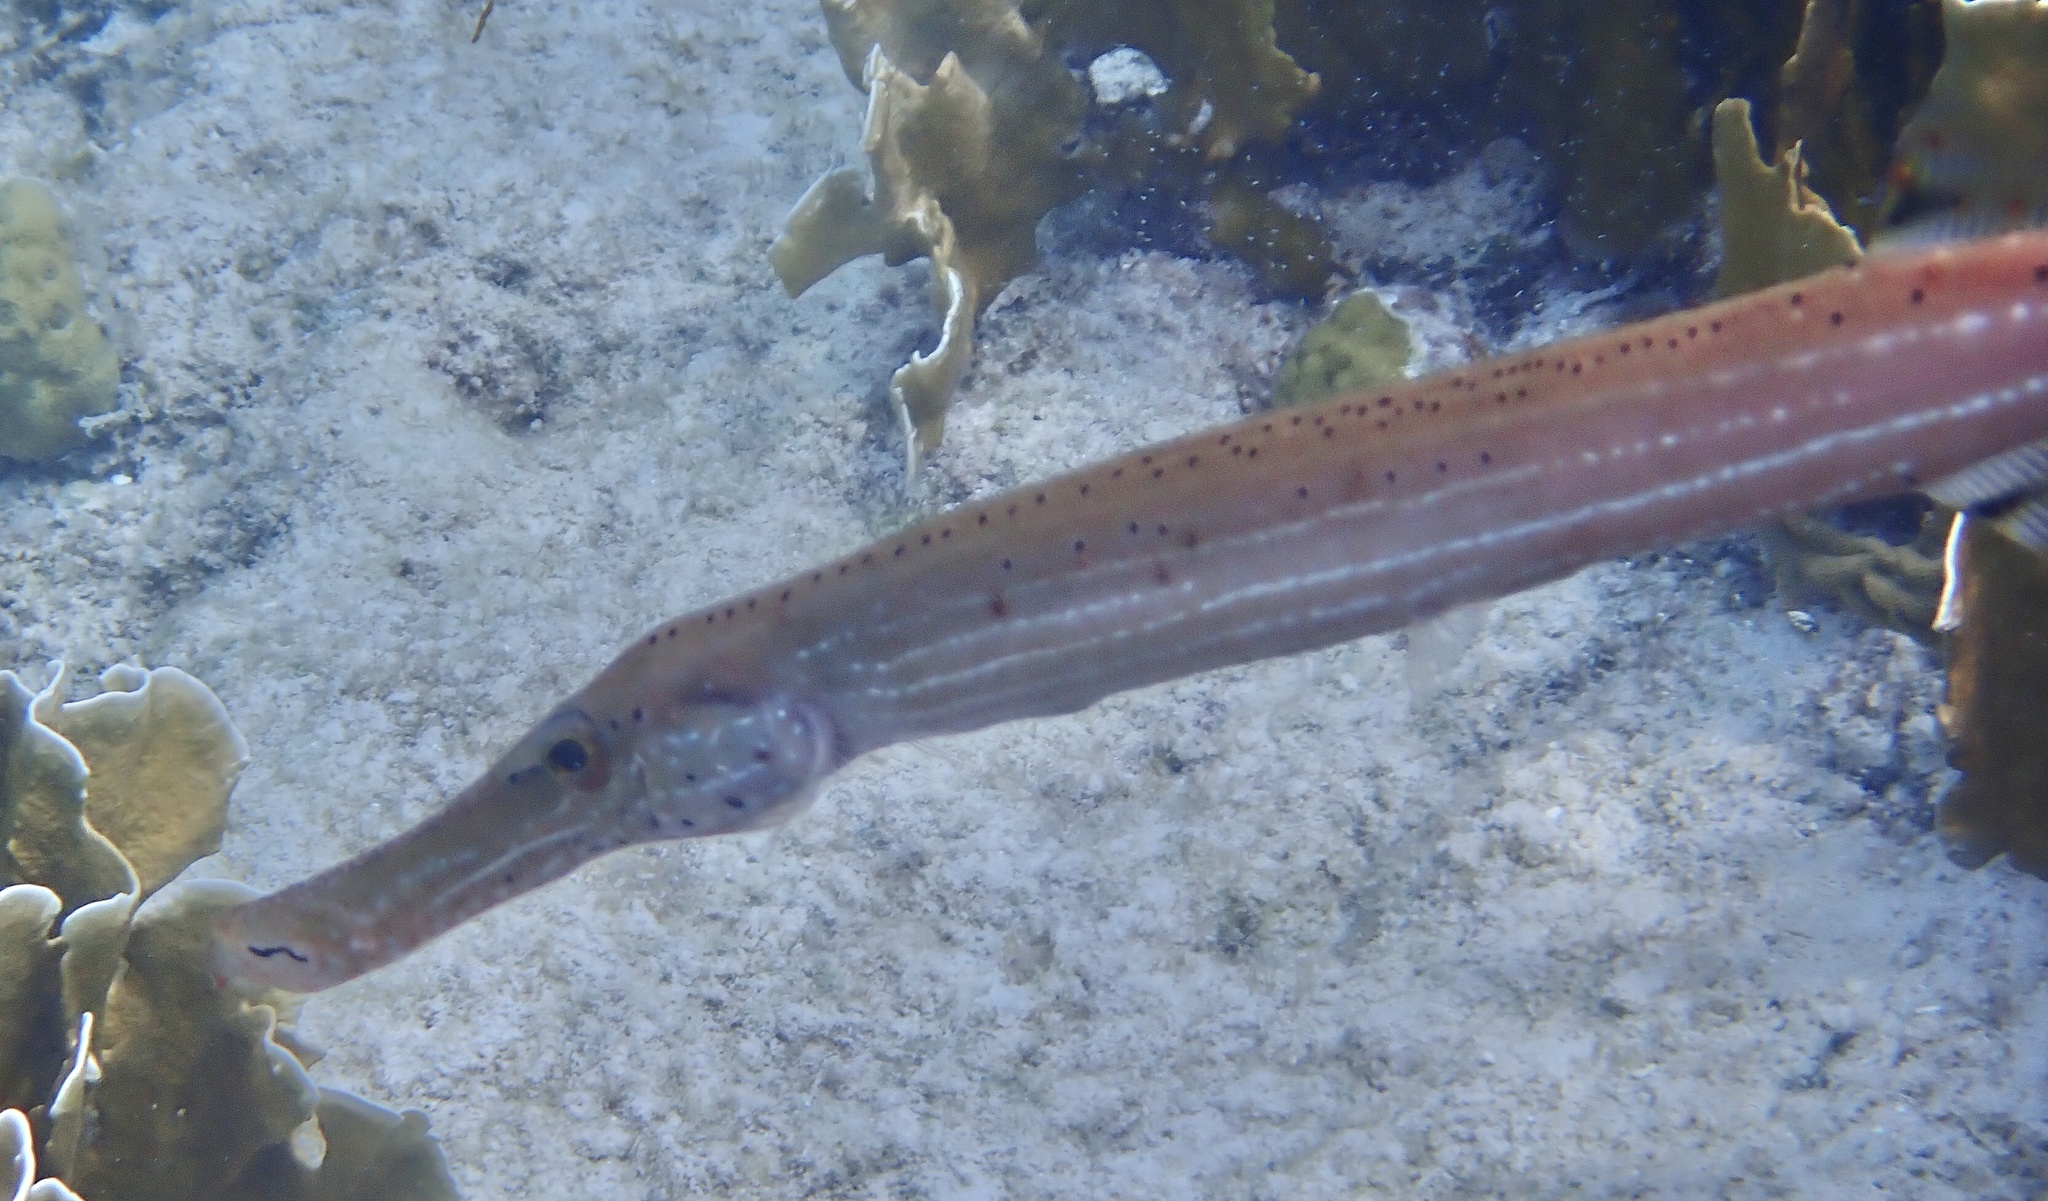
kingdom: Animalia
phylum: Chordata
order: Syngnathiformes
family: Aulostomidae
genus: Aulostomus
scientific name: Aulostomus maculatus
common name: West atlantic trumpetfish
